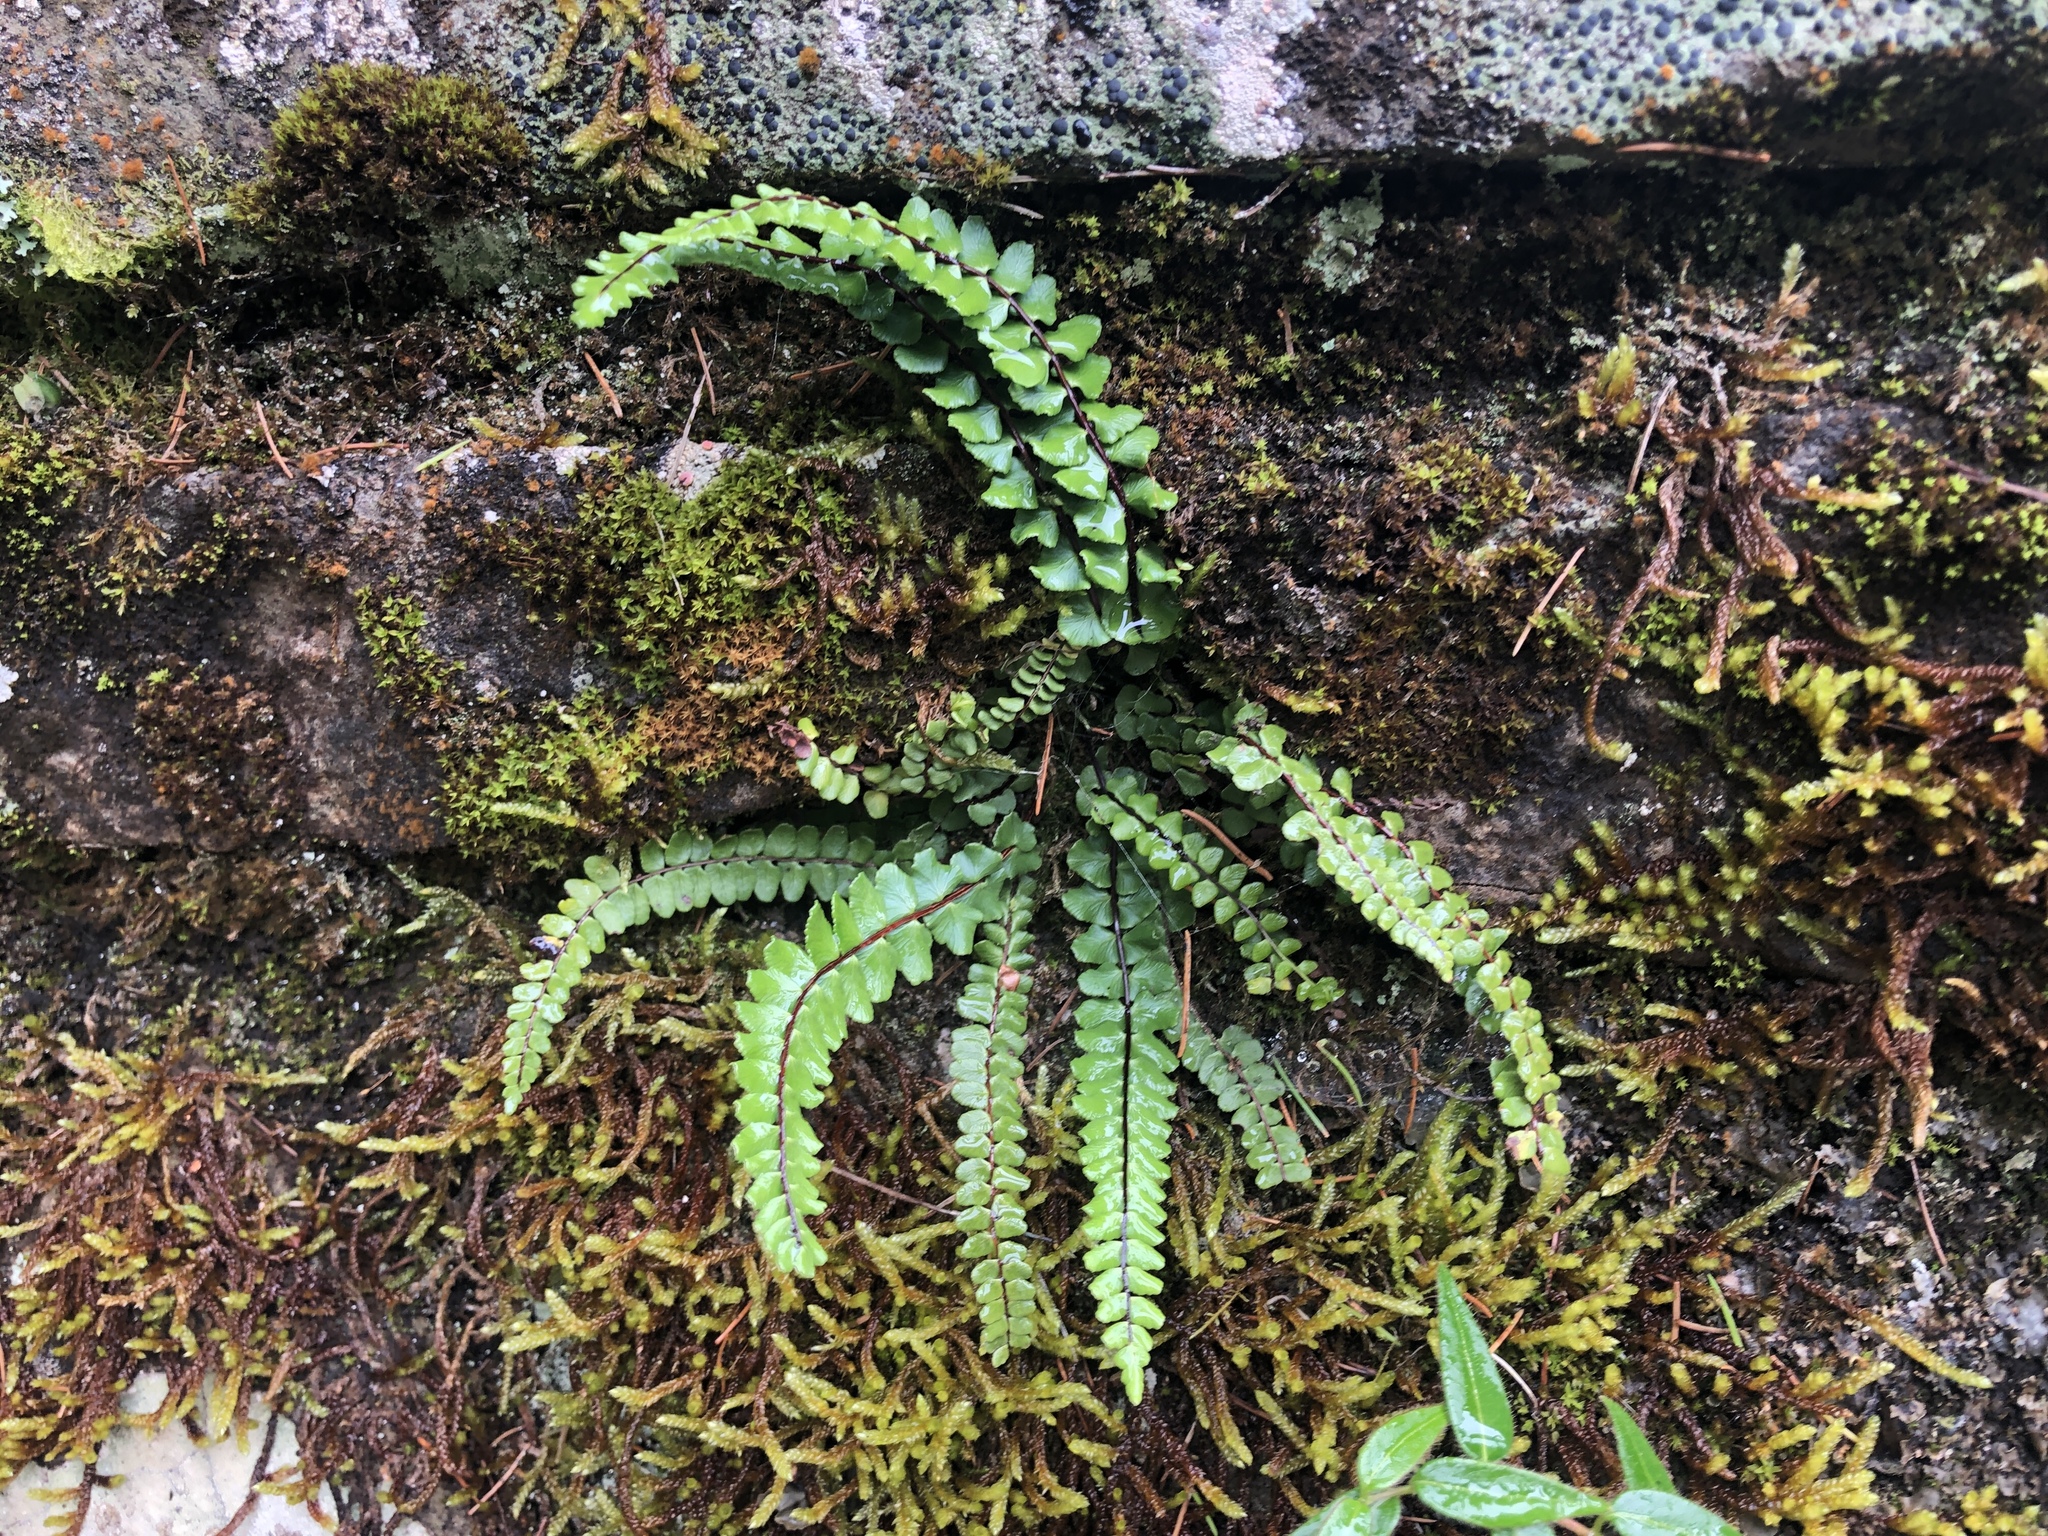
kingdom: Plantae
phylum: Tracheophyta
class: Polypodiopsida
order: Polypodiales
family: Aspleniaceae
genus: Asplenium
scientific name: Asplenium trichomanes
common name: Maidenhair spleenwort
